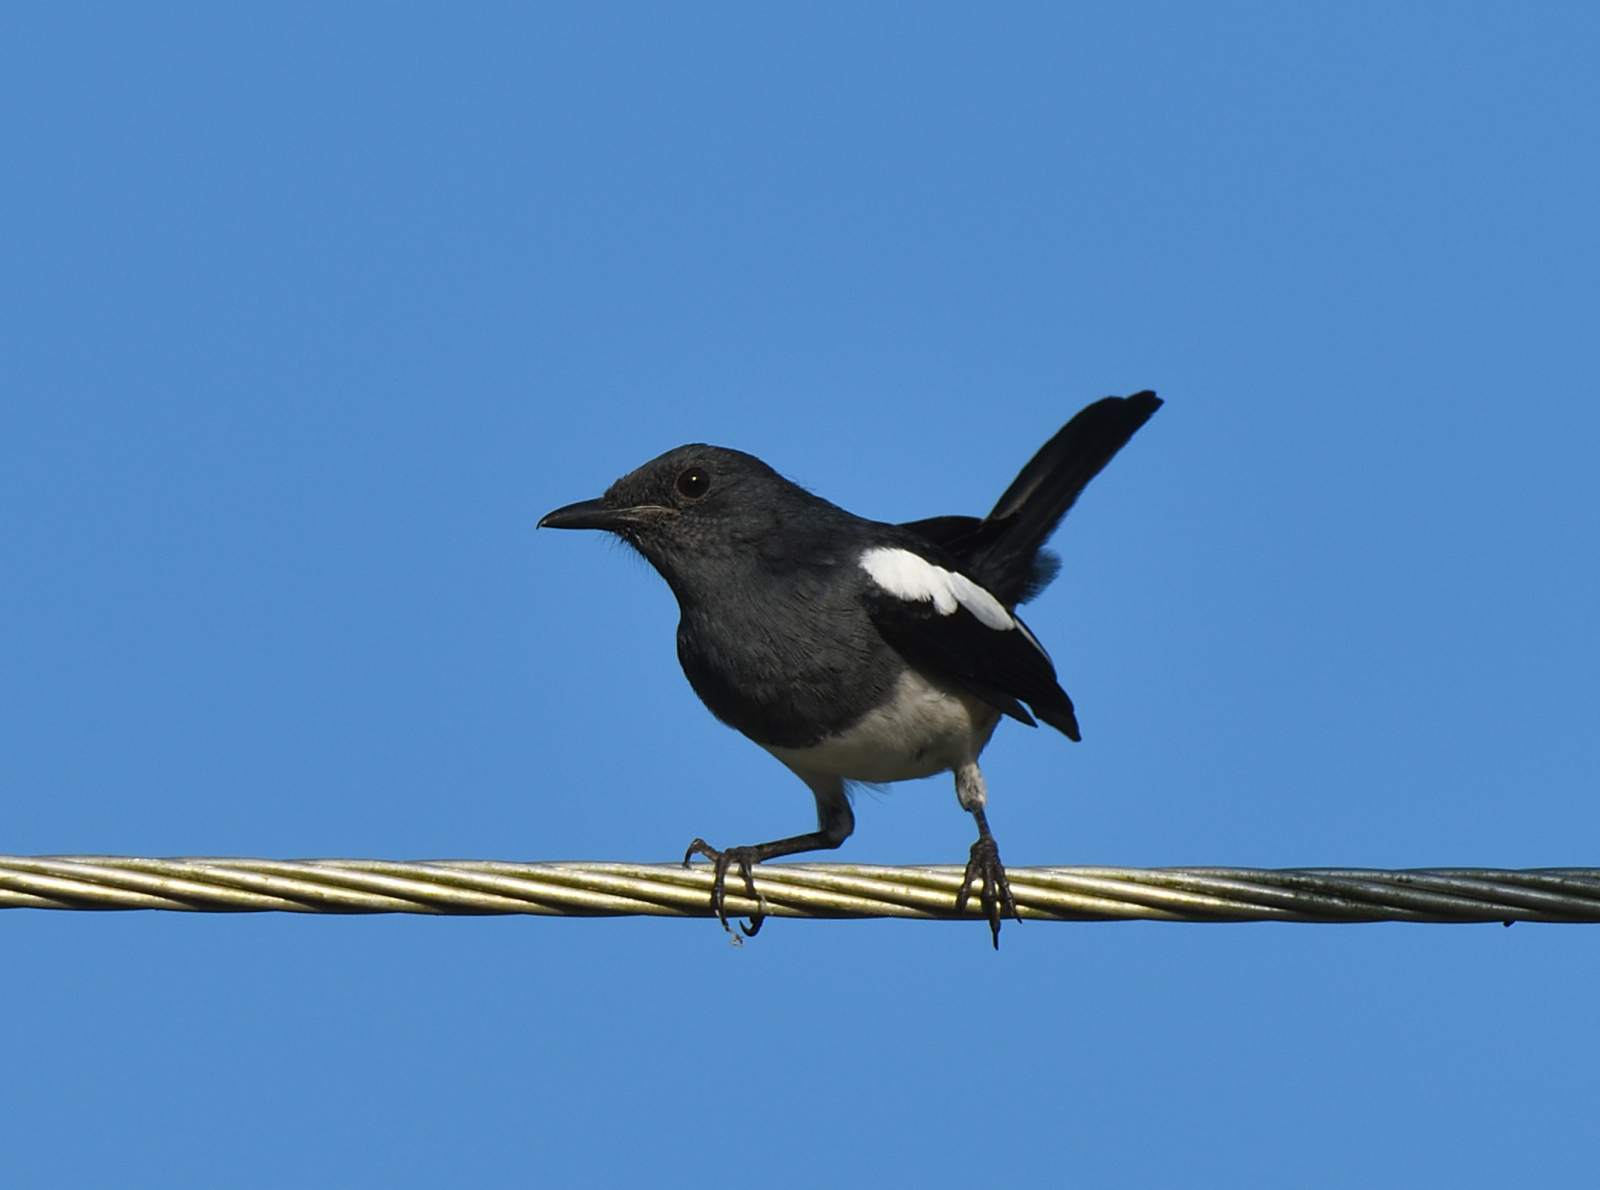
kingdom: Animalia
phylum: Chordata
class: Aves
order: Passeriformes
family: Muscicapidae
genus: Copsychus
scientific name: Copsychus saularis
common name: Oriental magpie-robin
